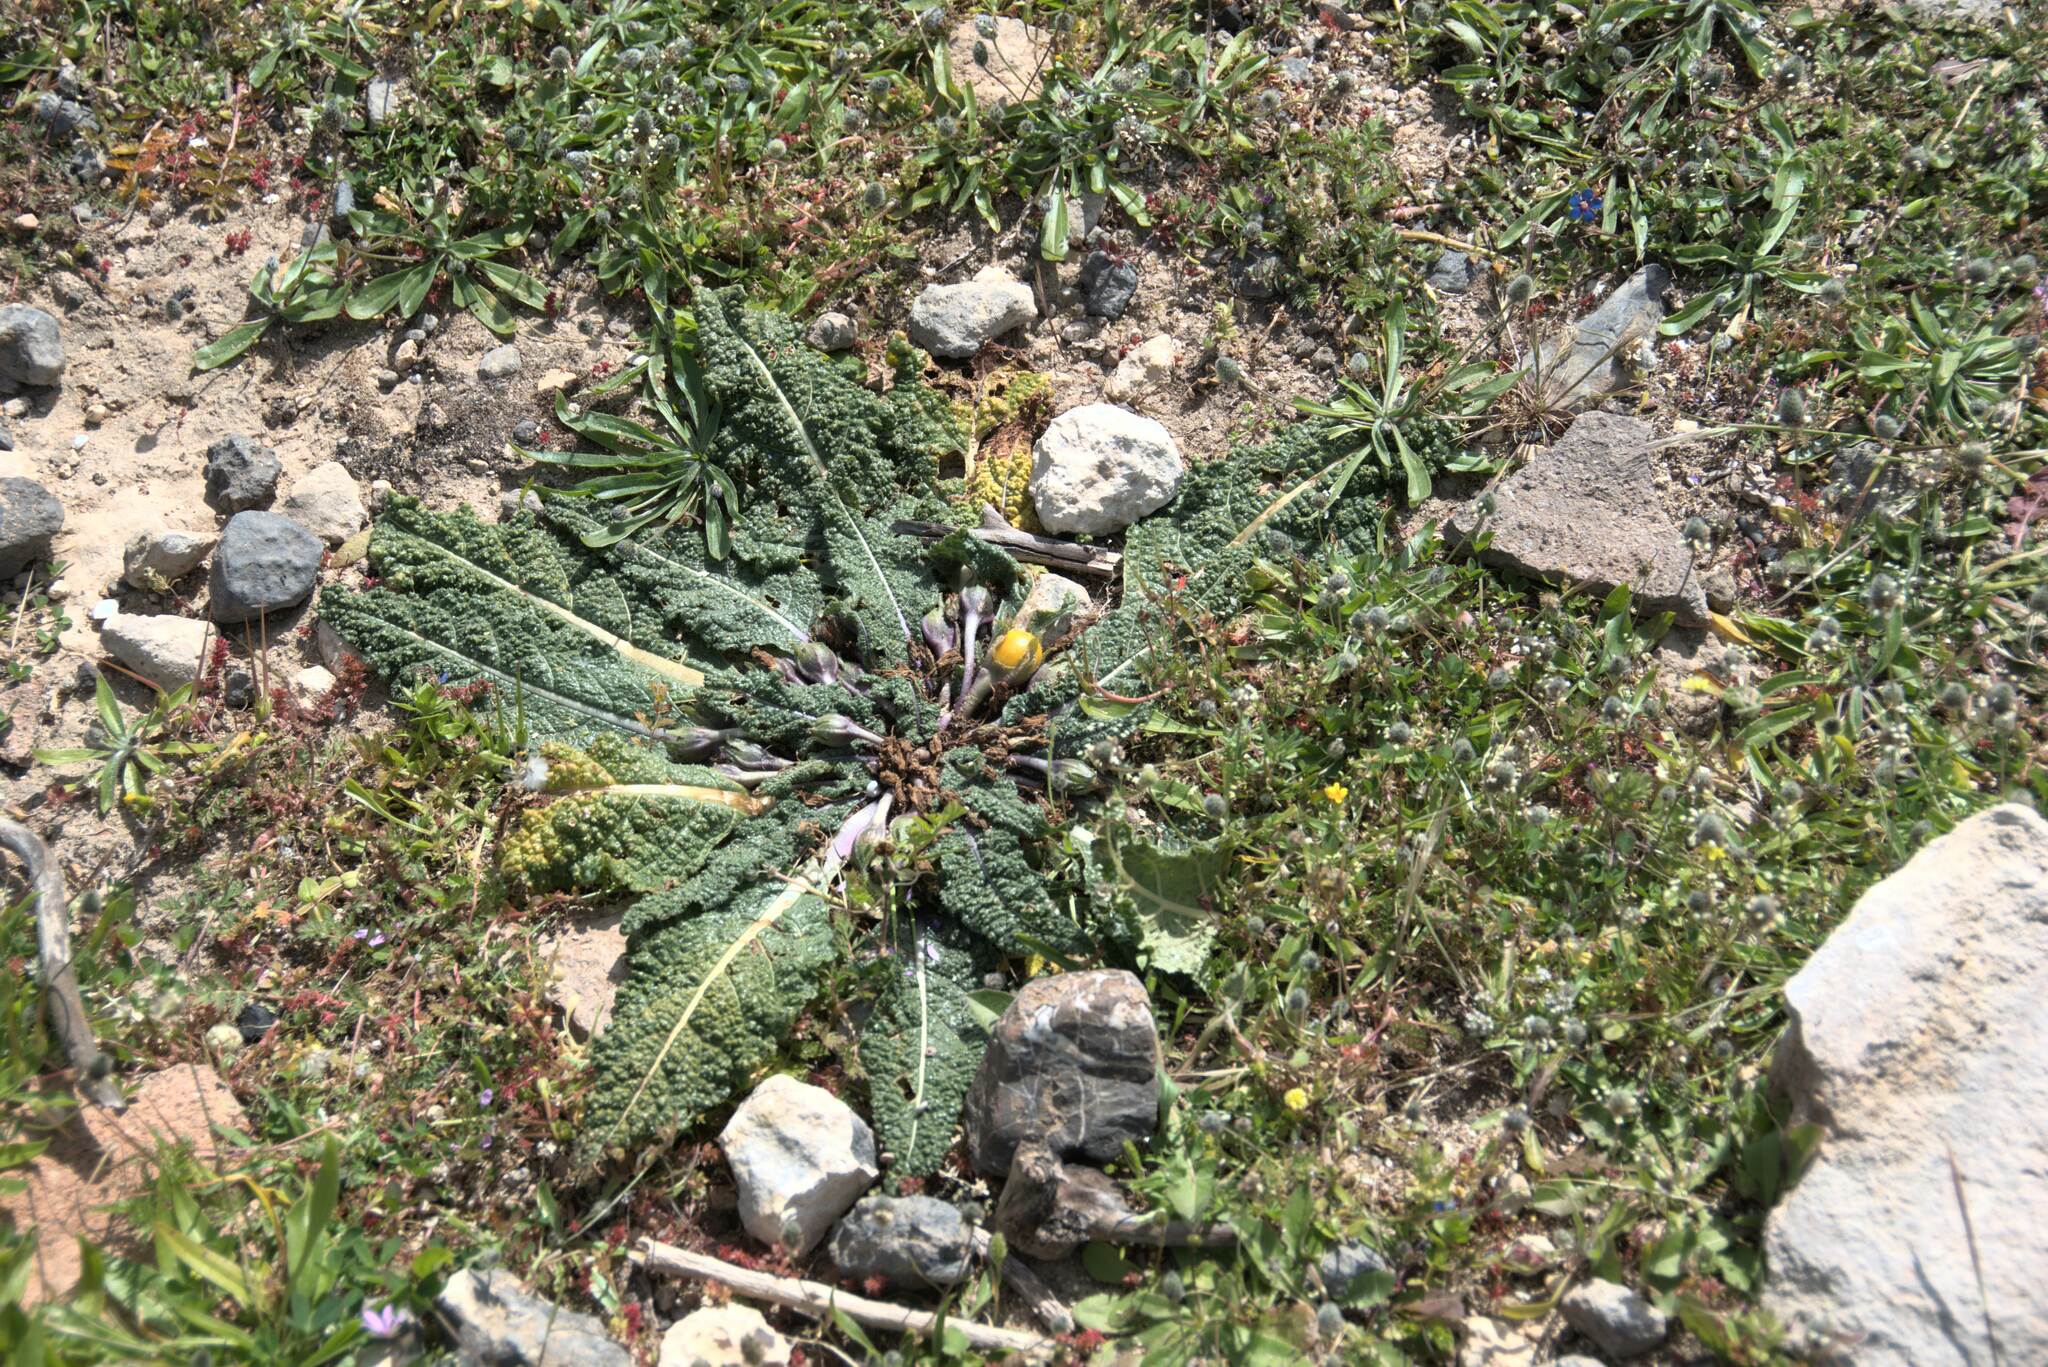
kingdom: Plantae
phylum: Tracheophyta
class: Magnoliopsida
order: Solanales
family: Solanaceae
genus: Mandragora
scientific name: Mandragora officinarum
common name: Mandrake
